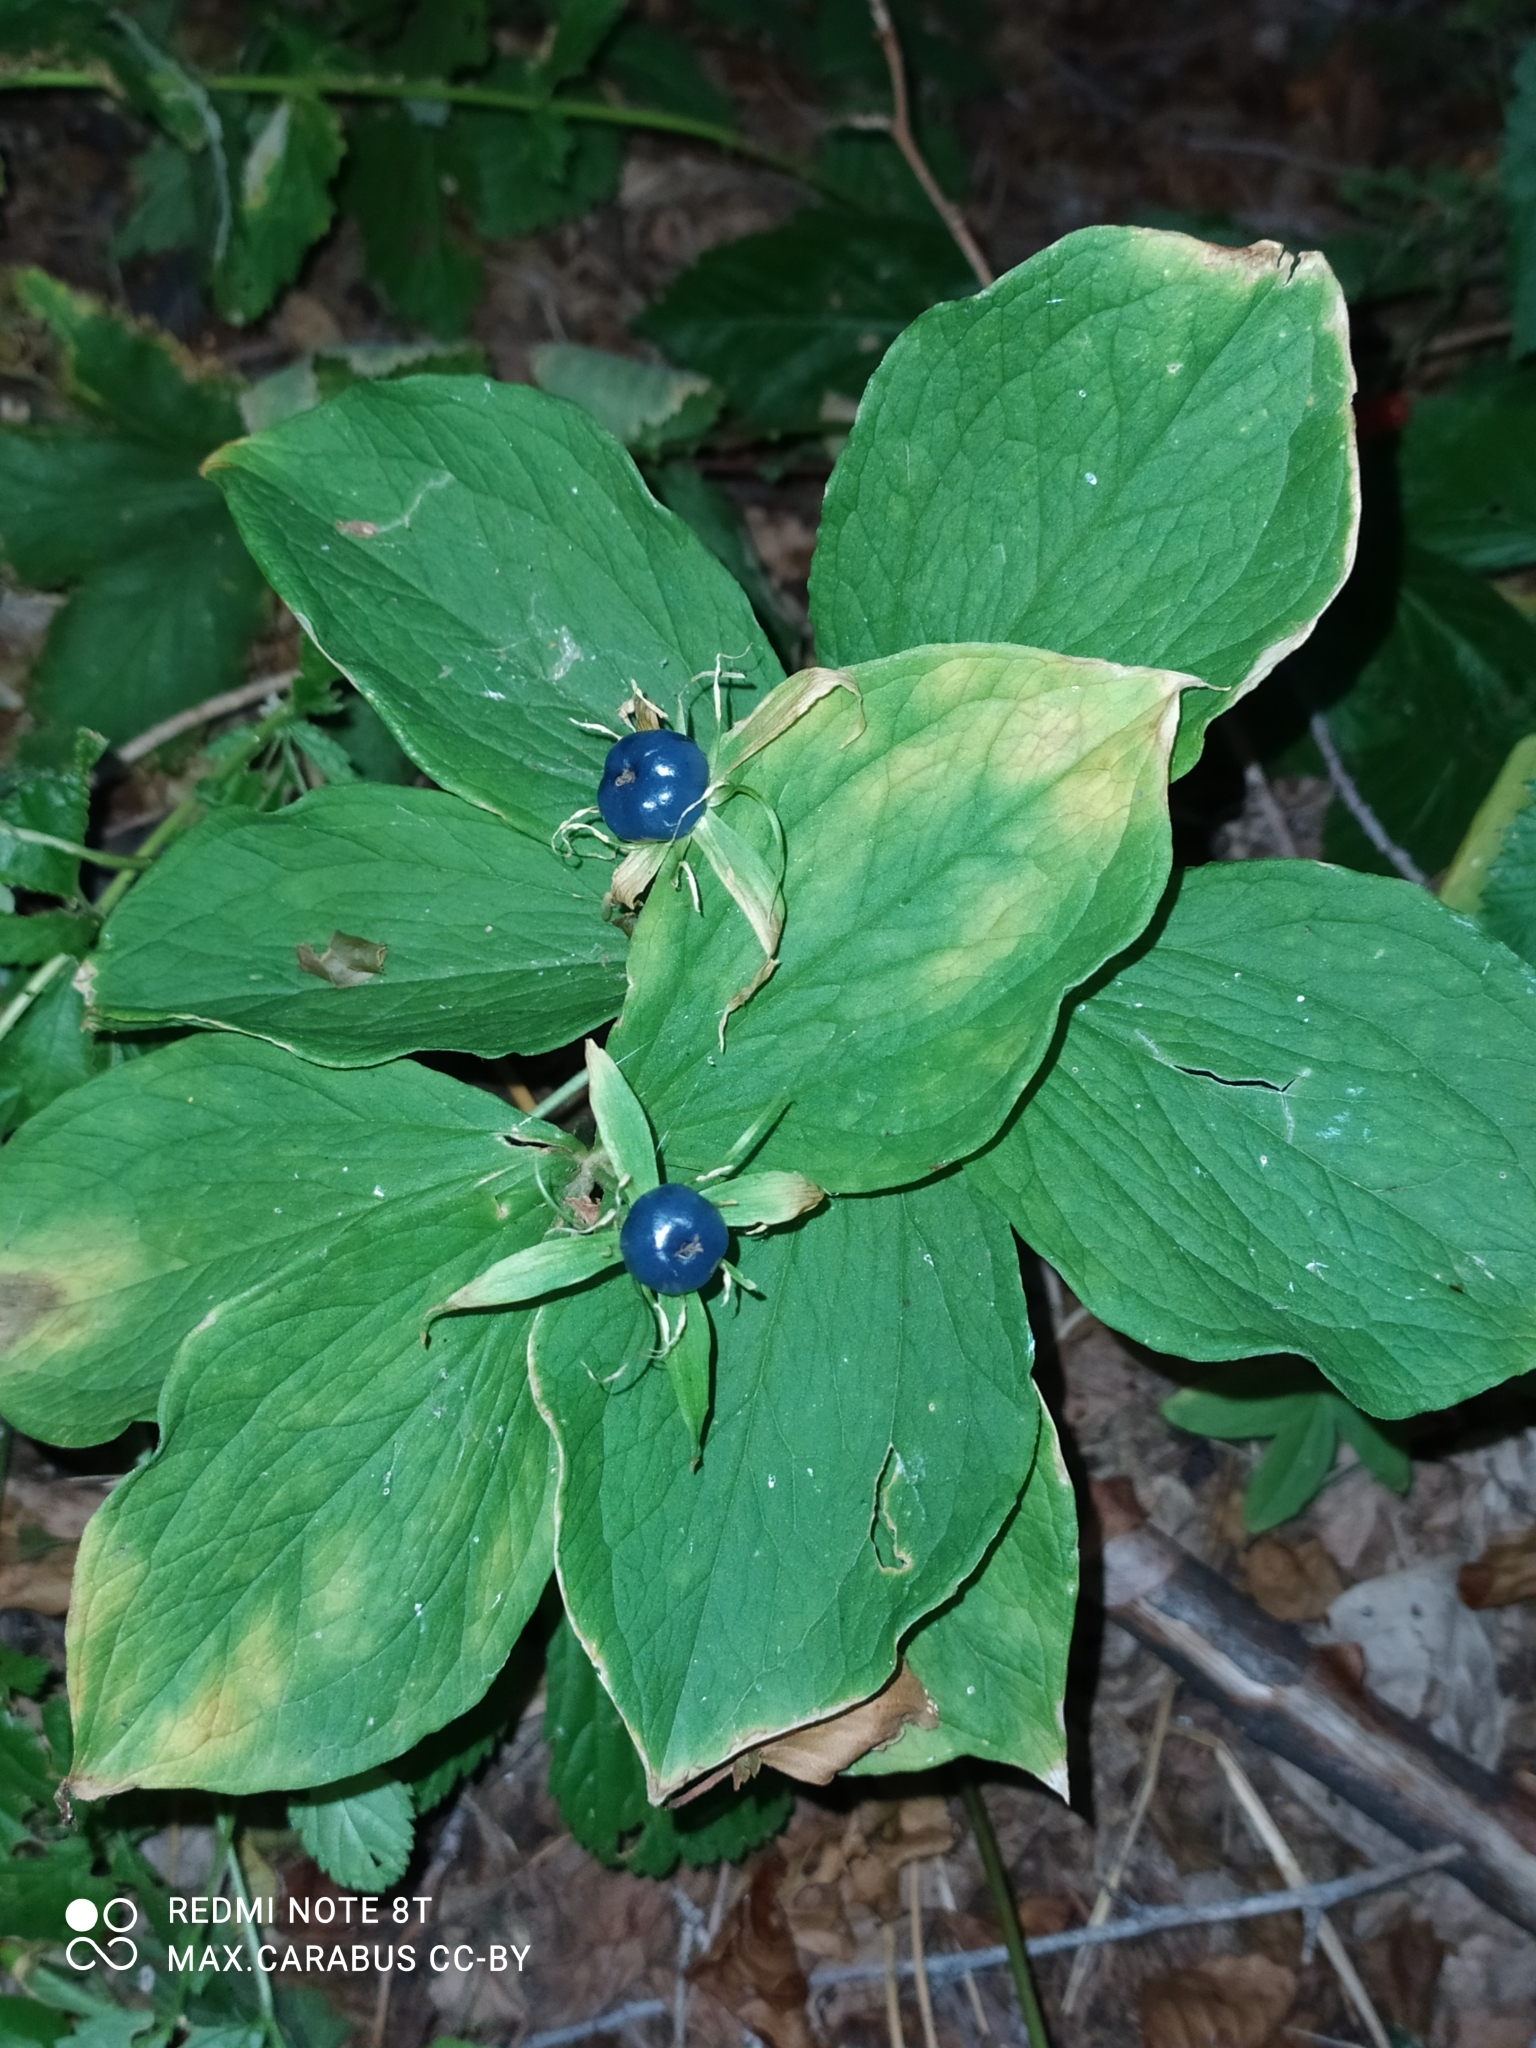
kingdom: Plantae
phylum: Tracheophyta
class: Liliopsida
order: Liliales
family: Melanthiaceae
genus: Paris
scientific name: Paris quadrifolia
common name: Herb-paris
